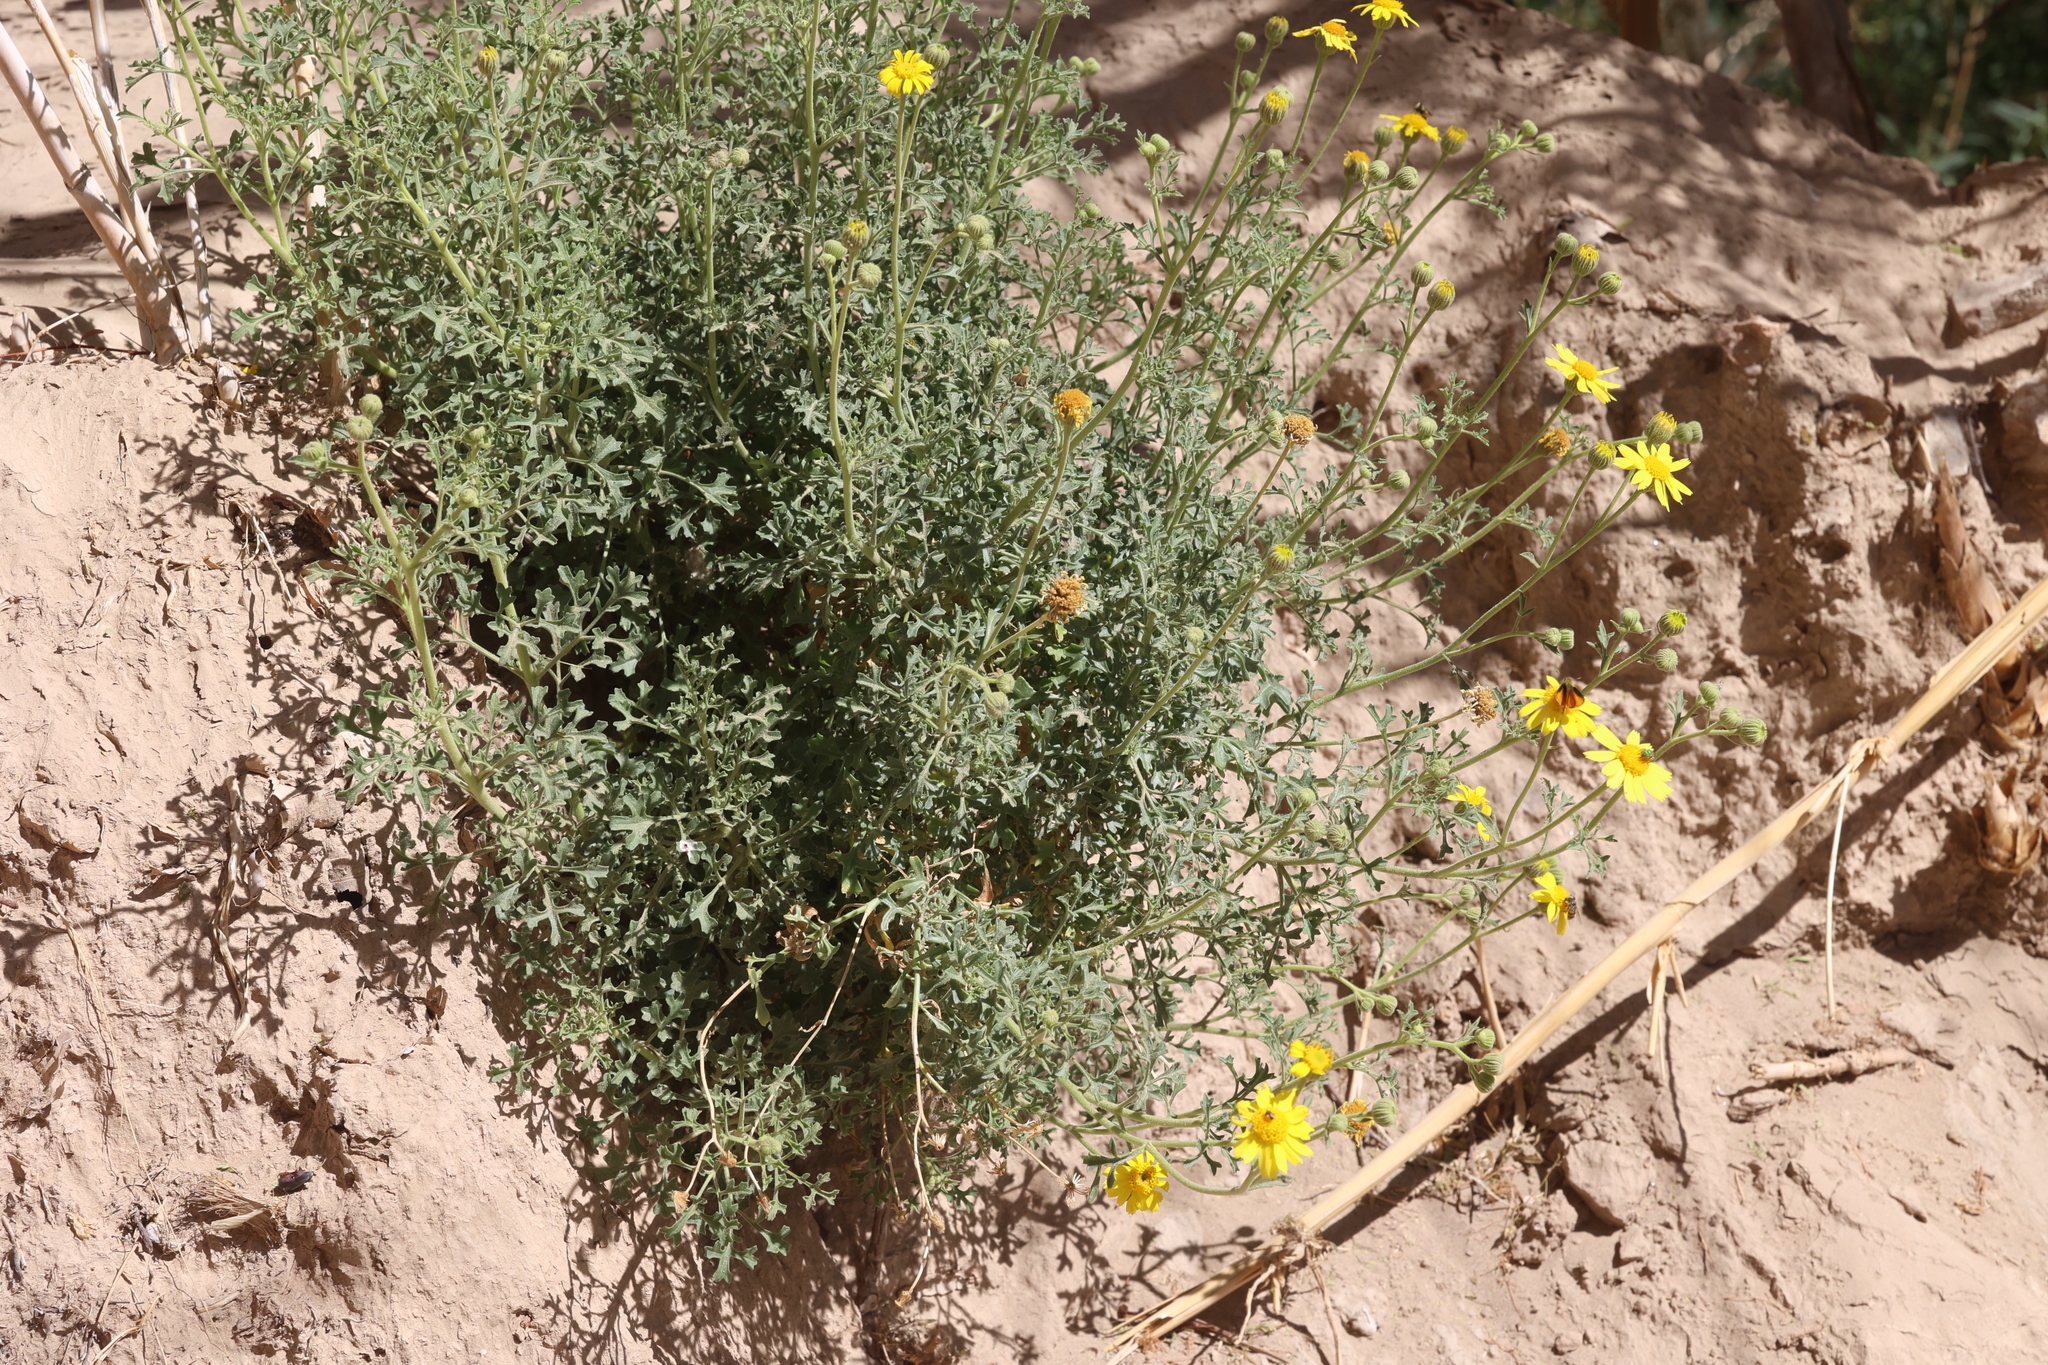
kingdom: Plantae
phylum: Tracheophyta
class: Magnoliopsida
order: Asterales
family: Asteraceae
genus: Laphamia
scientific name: Laphamia vaseyi
